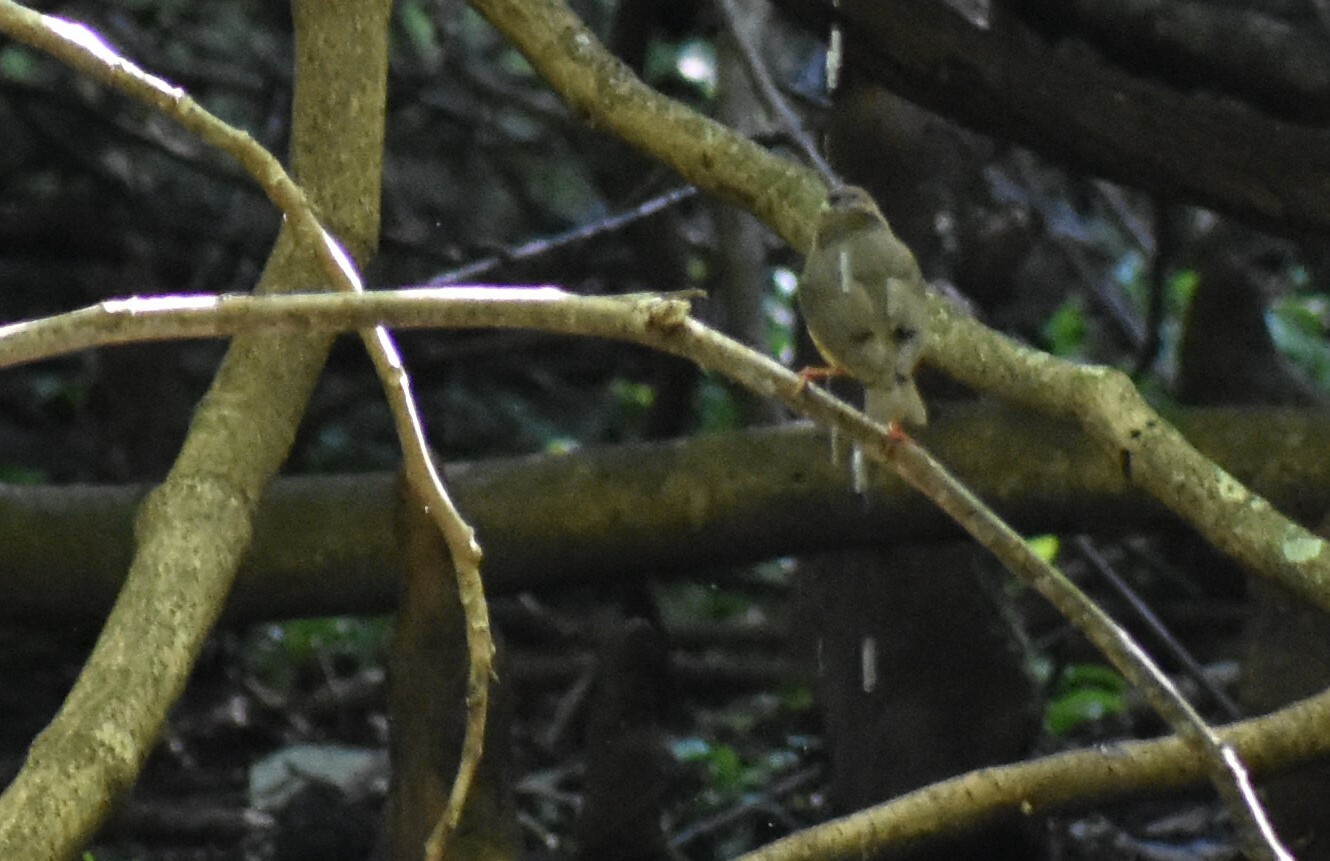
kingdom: Animalia
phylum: Chordata
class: Aves
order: Passeriformes
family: Parulidae
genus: Parkesia
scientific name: Parkesia noveboracensis
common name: Northern waterthrush
